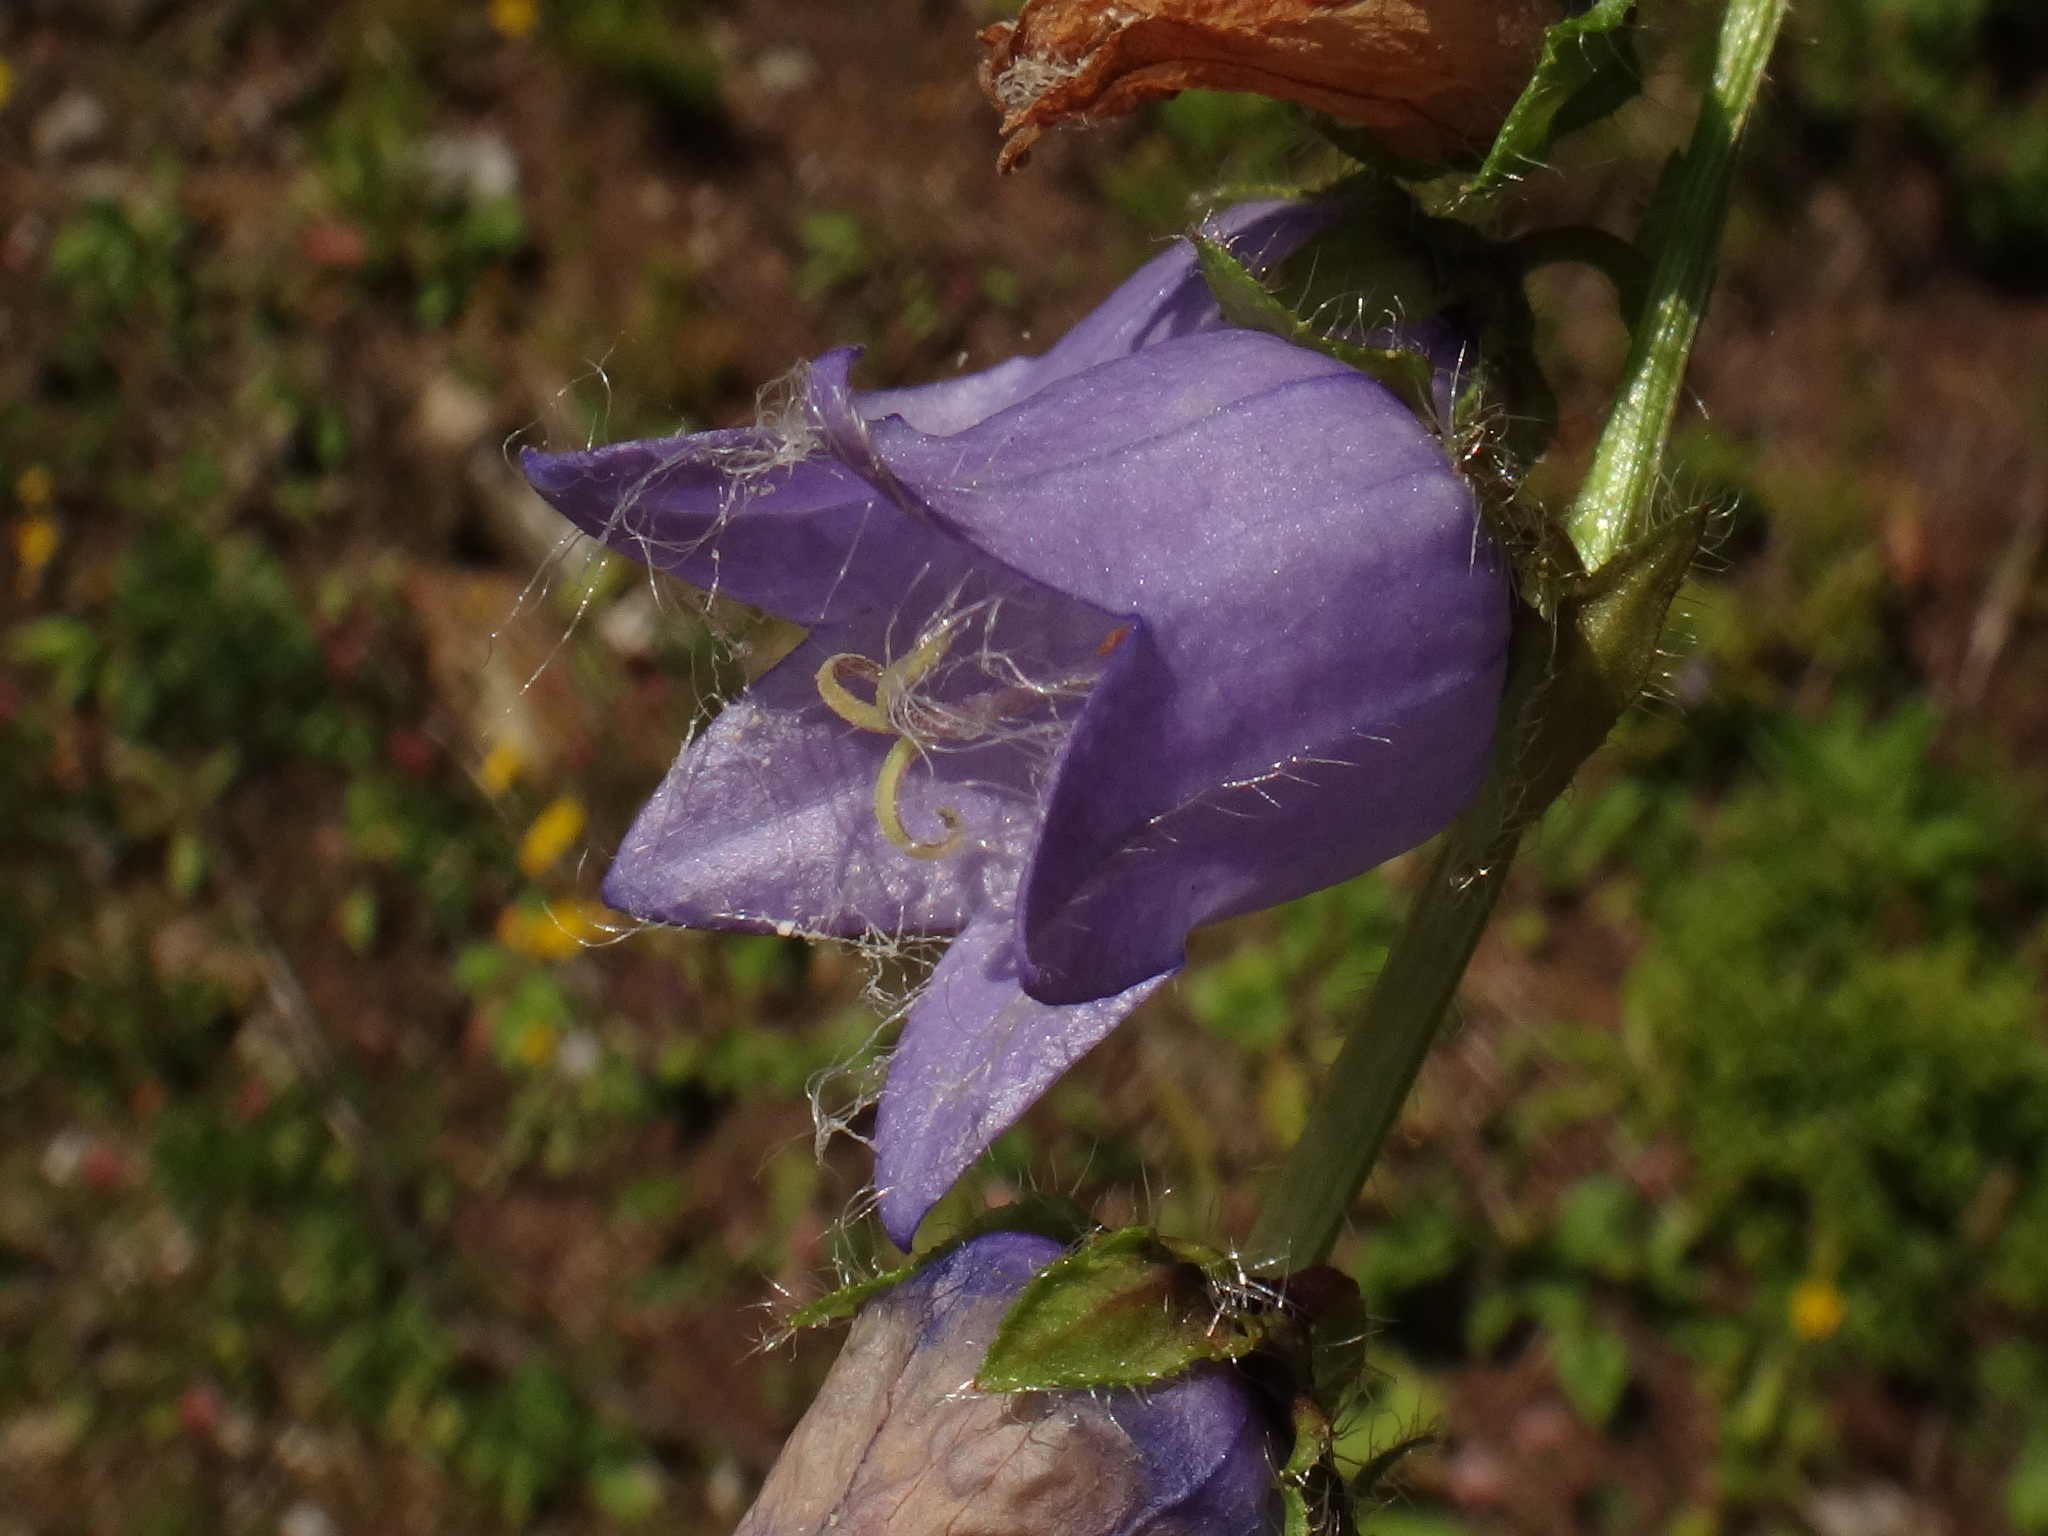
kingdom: Plantae
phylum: Tracheophyta
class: Magnoliopsida
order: Asterales
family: Campanulaceae
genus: Campanula
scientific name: Campanula barbata
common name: Bearded bellflower
